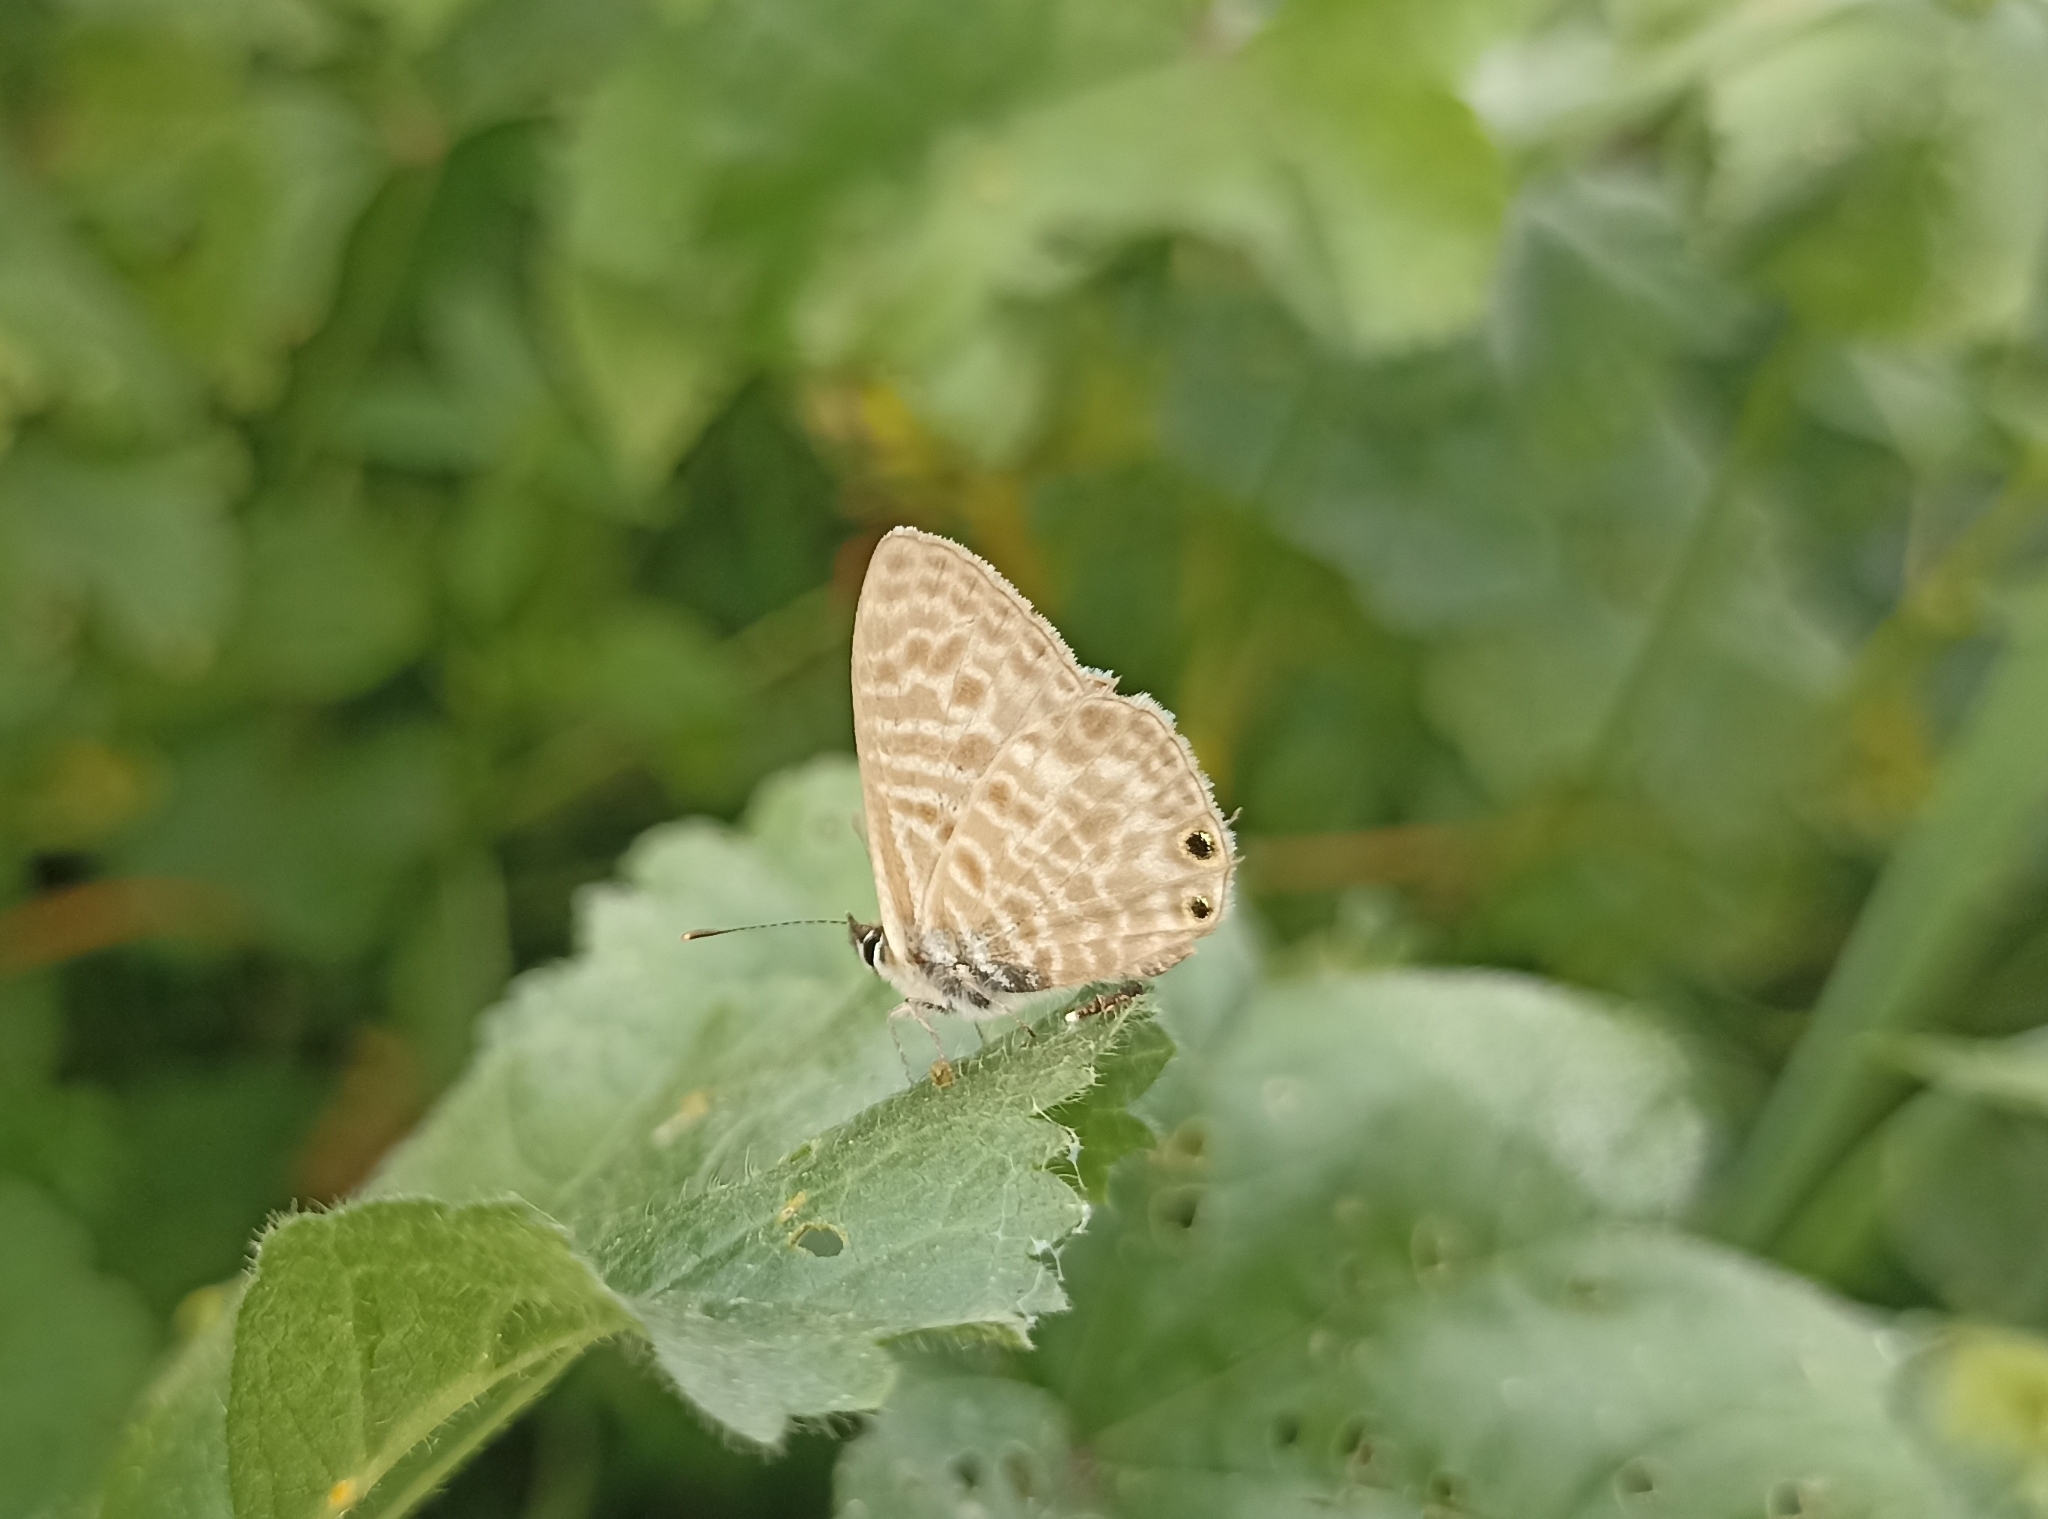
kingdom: Animalia
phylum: Arthropoda
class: Insecta
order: Lepidoptera
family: Lycaenidae
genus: Leptotes
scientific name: Leptotes pirithous
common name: Lang's short-tailed blue
